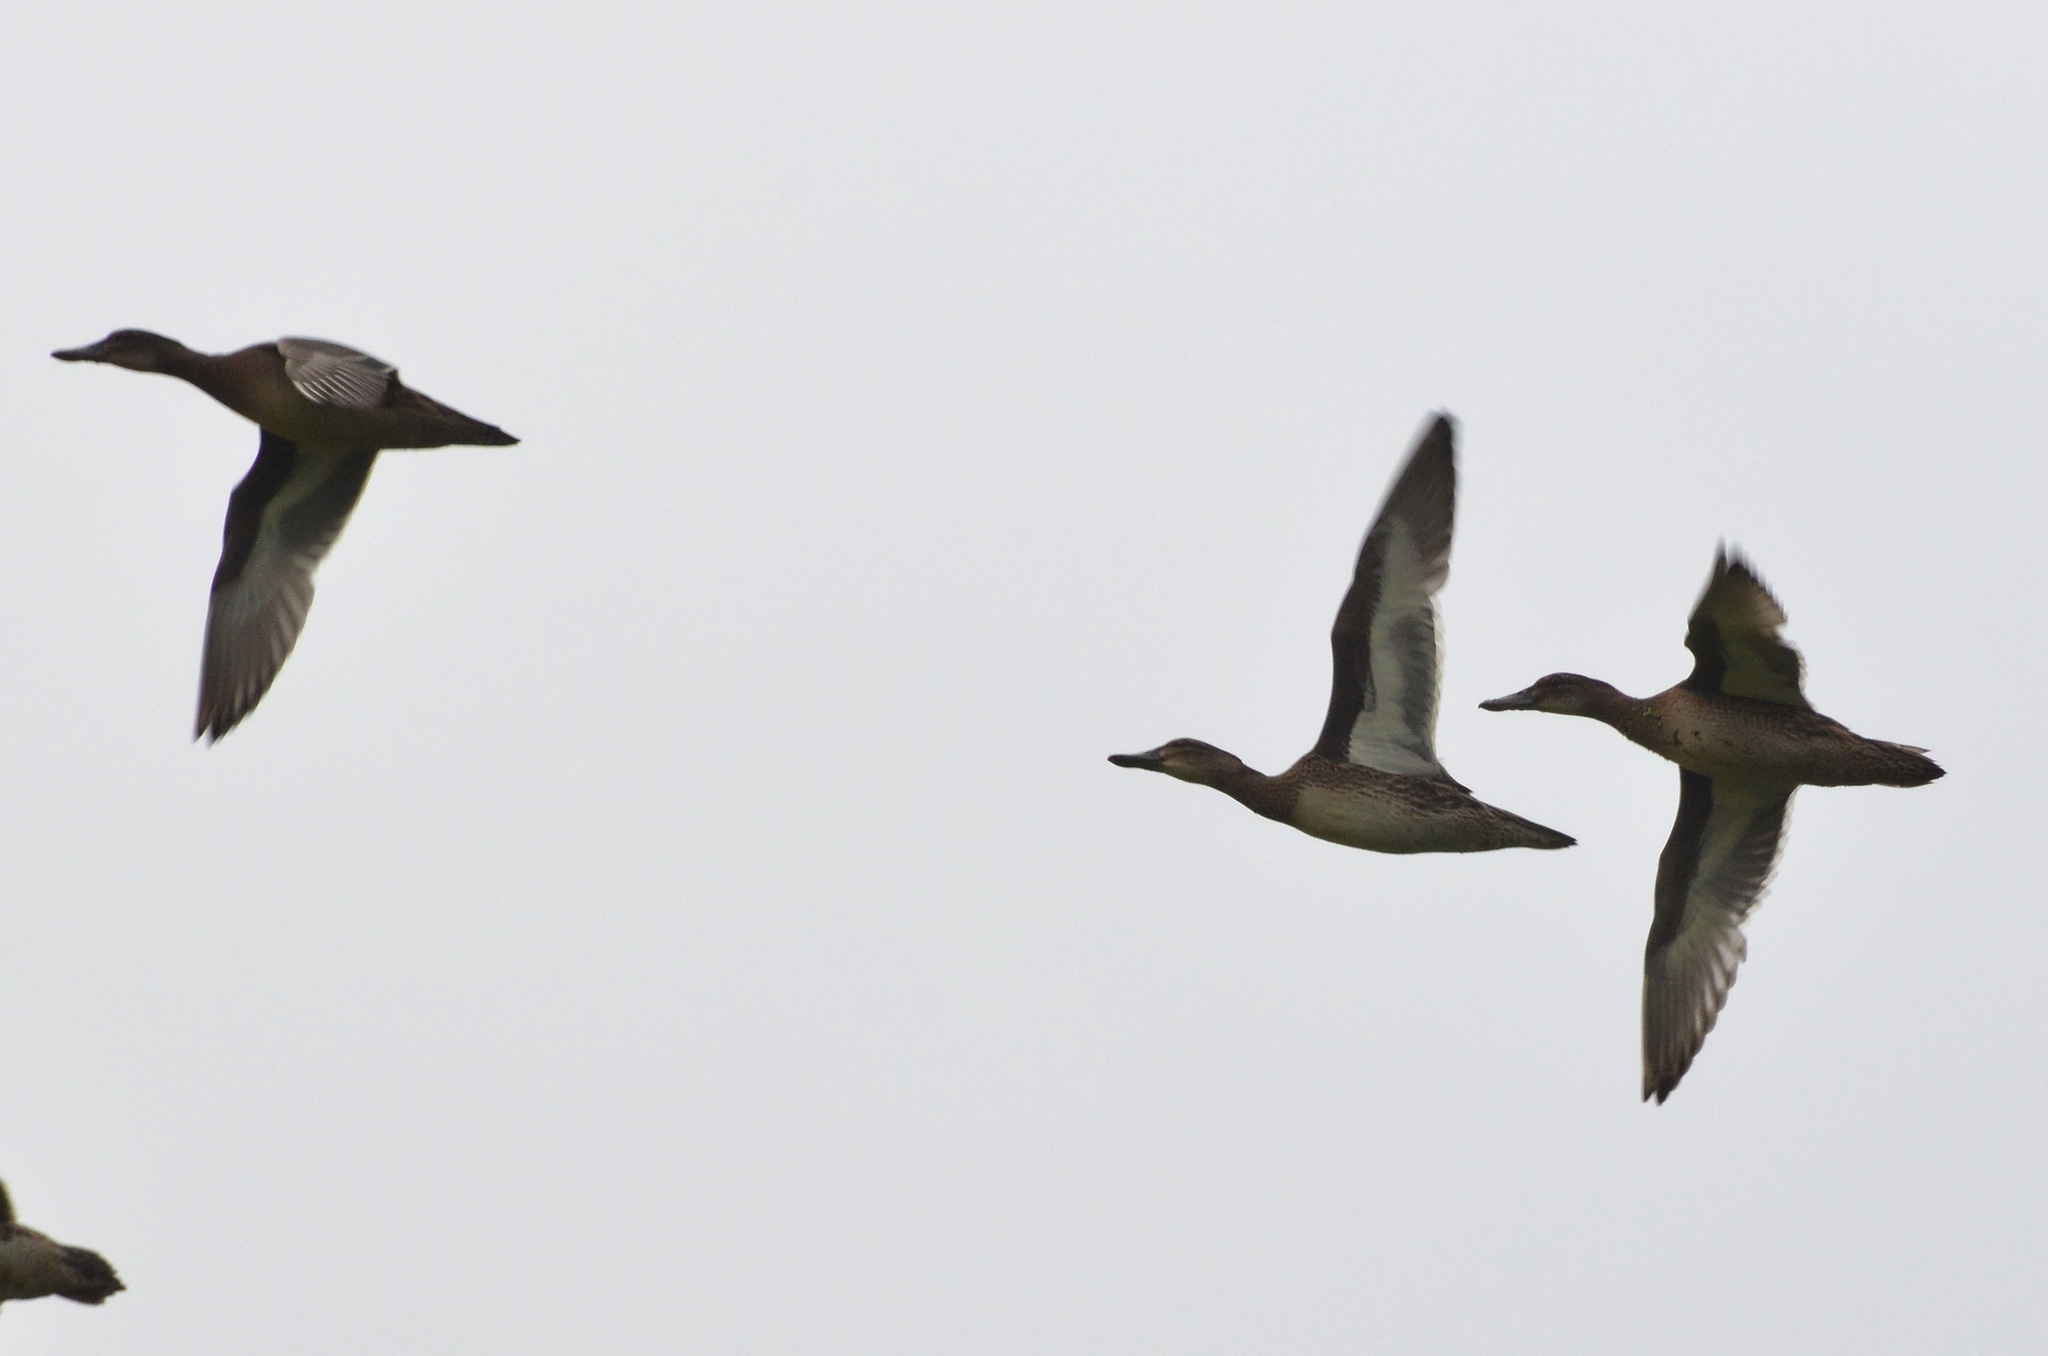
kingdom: Animalia
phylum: Chordata
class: Aves
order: Anseriformes
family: Anatidae
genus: Spatula
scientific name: Spatula querquedula
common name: Garganey
